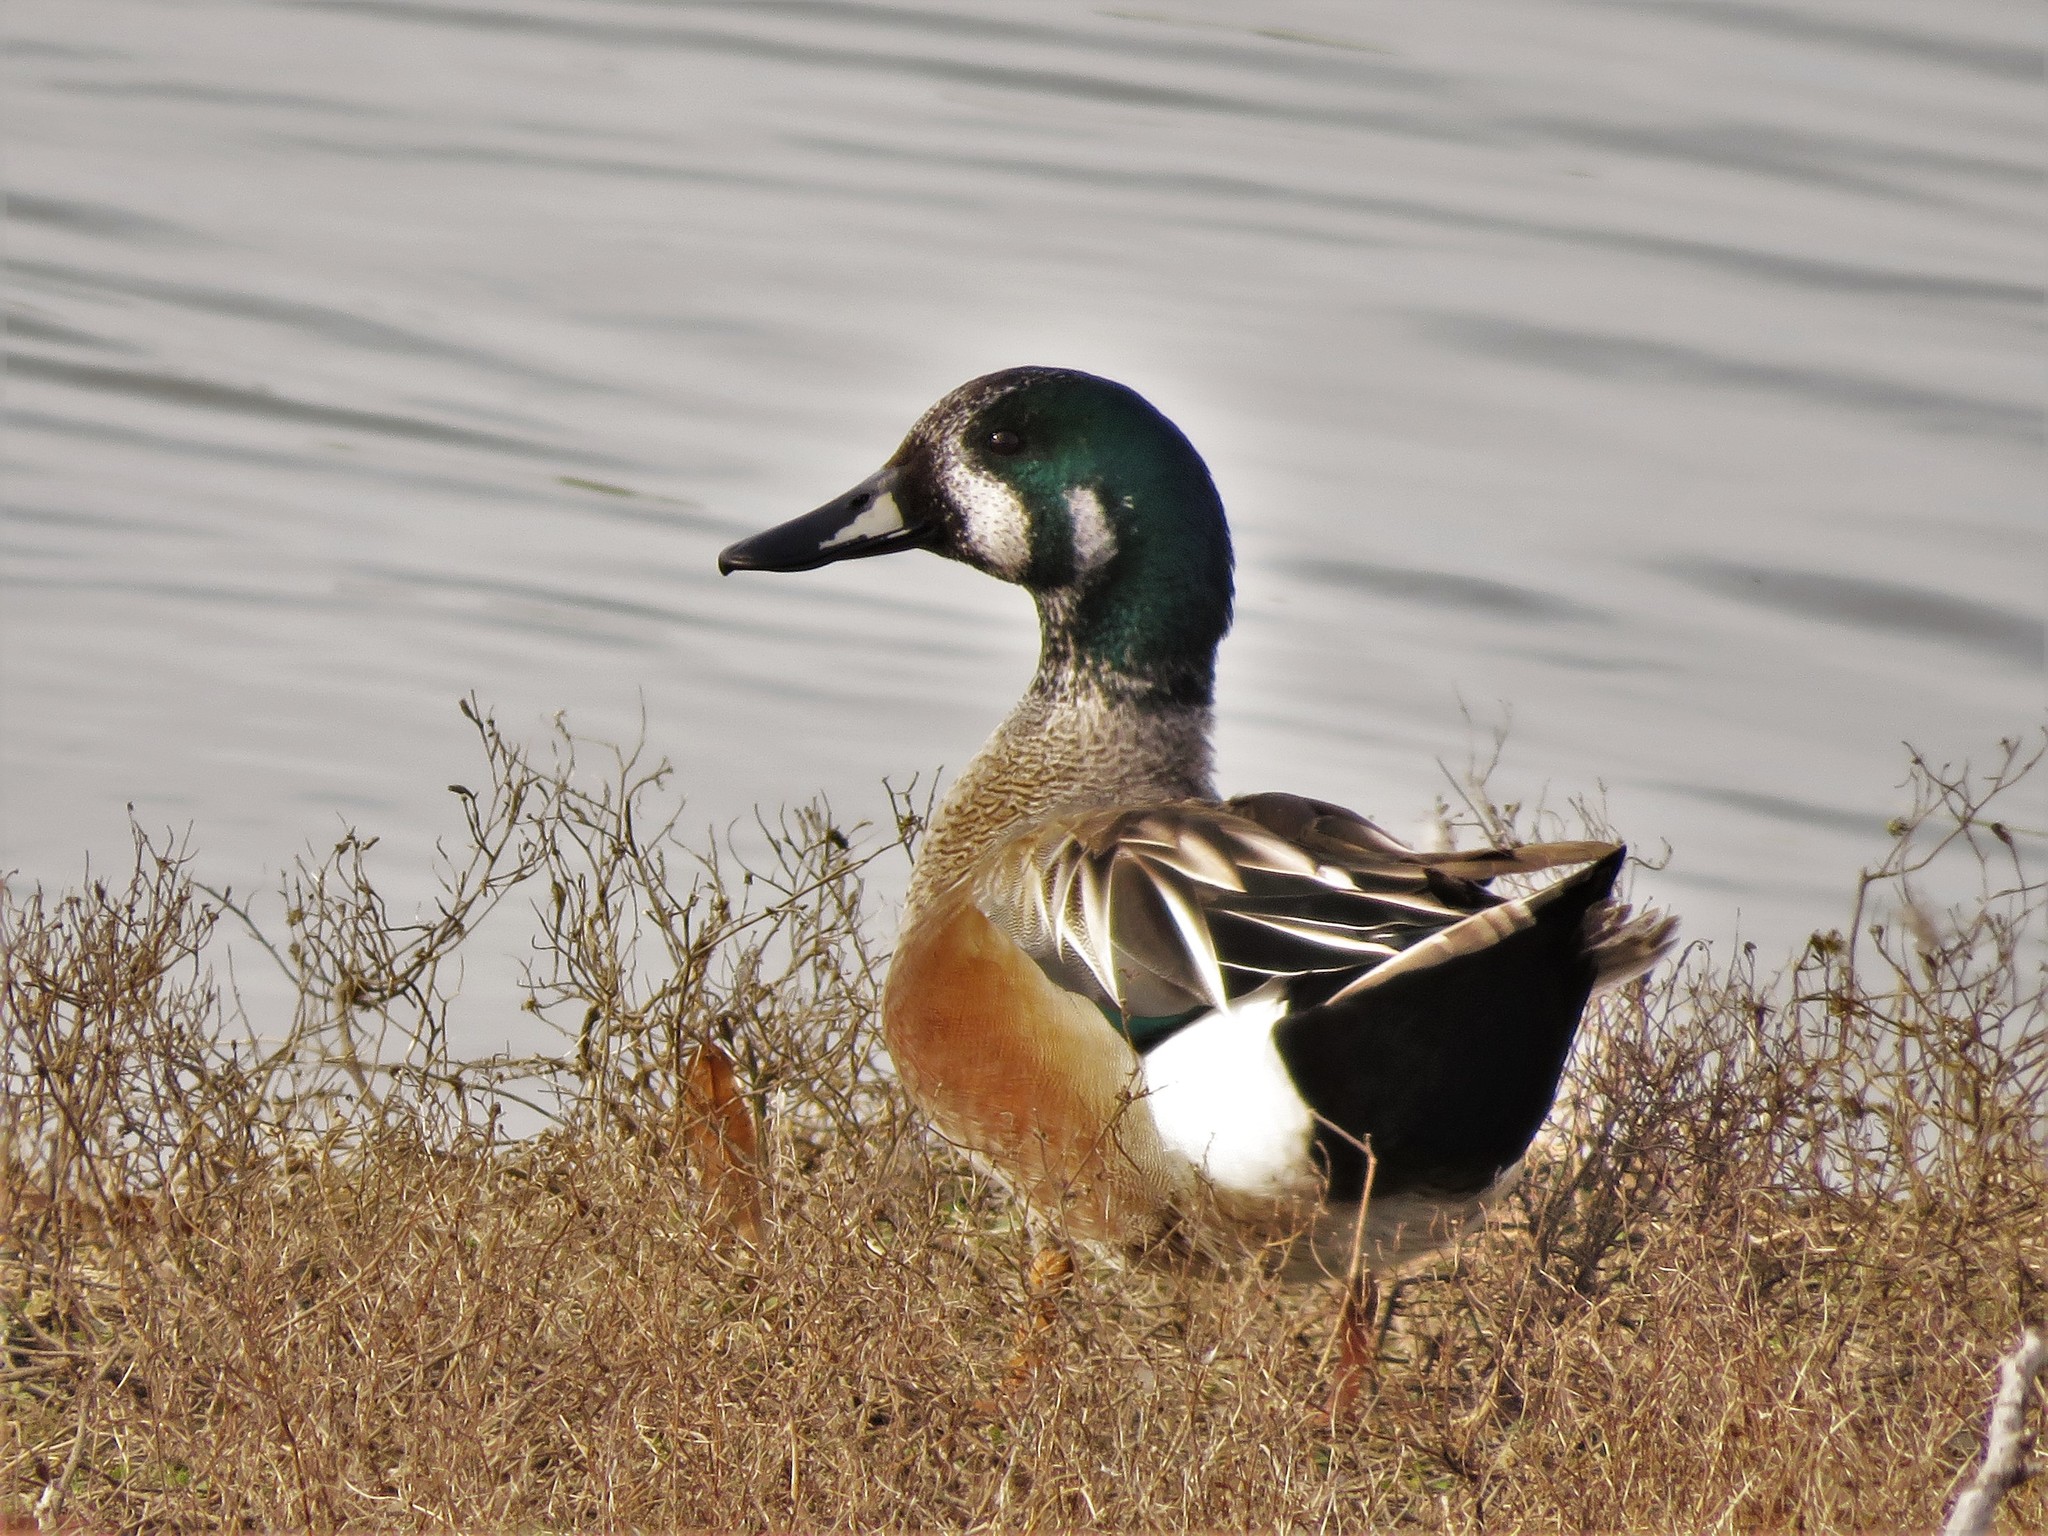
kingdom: Animalia
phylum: Chordata
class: Aves
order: Anseriformes
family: Anatidae
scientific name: Anatidae
